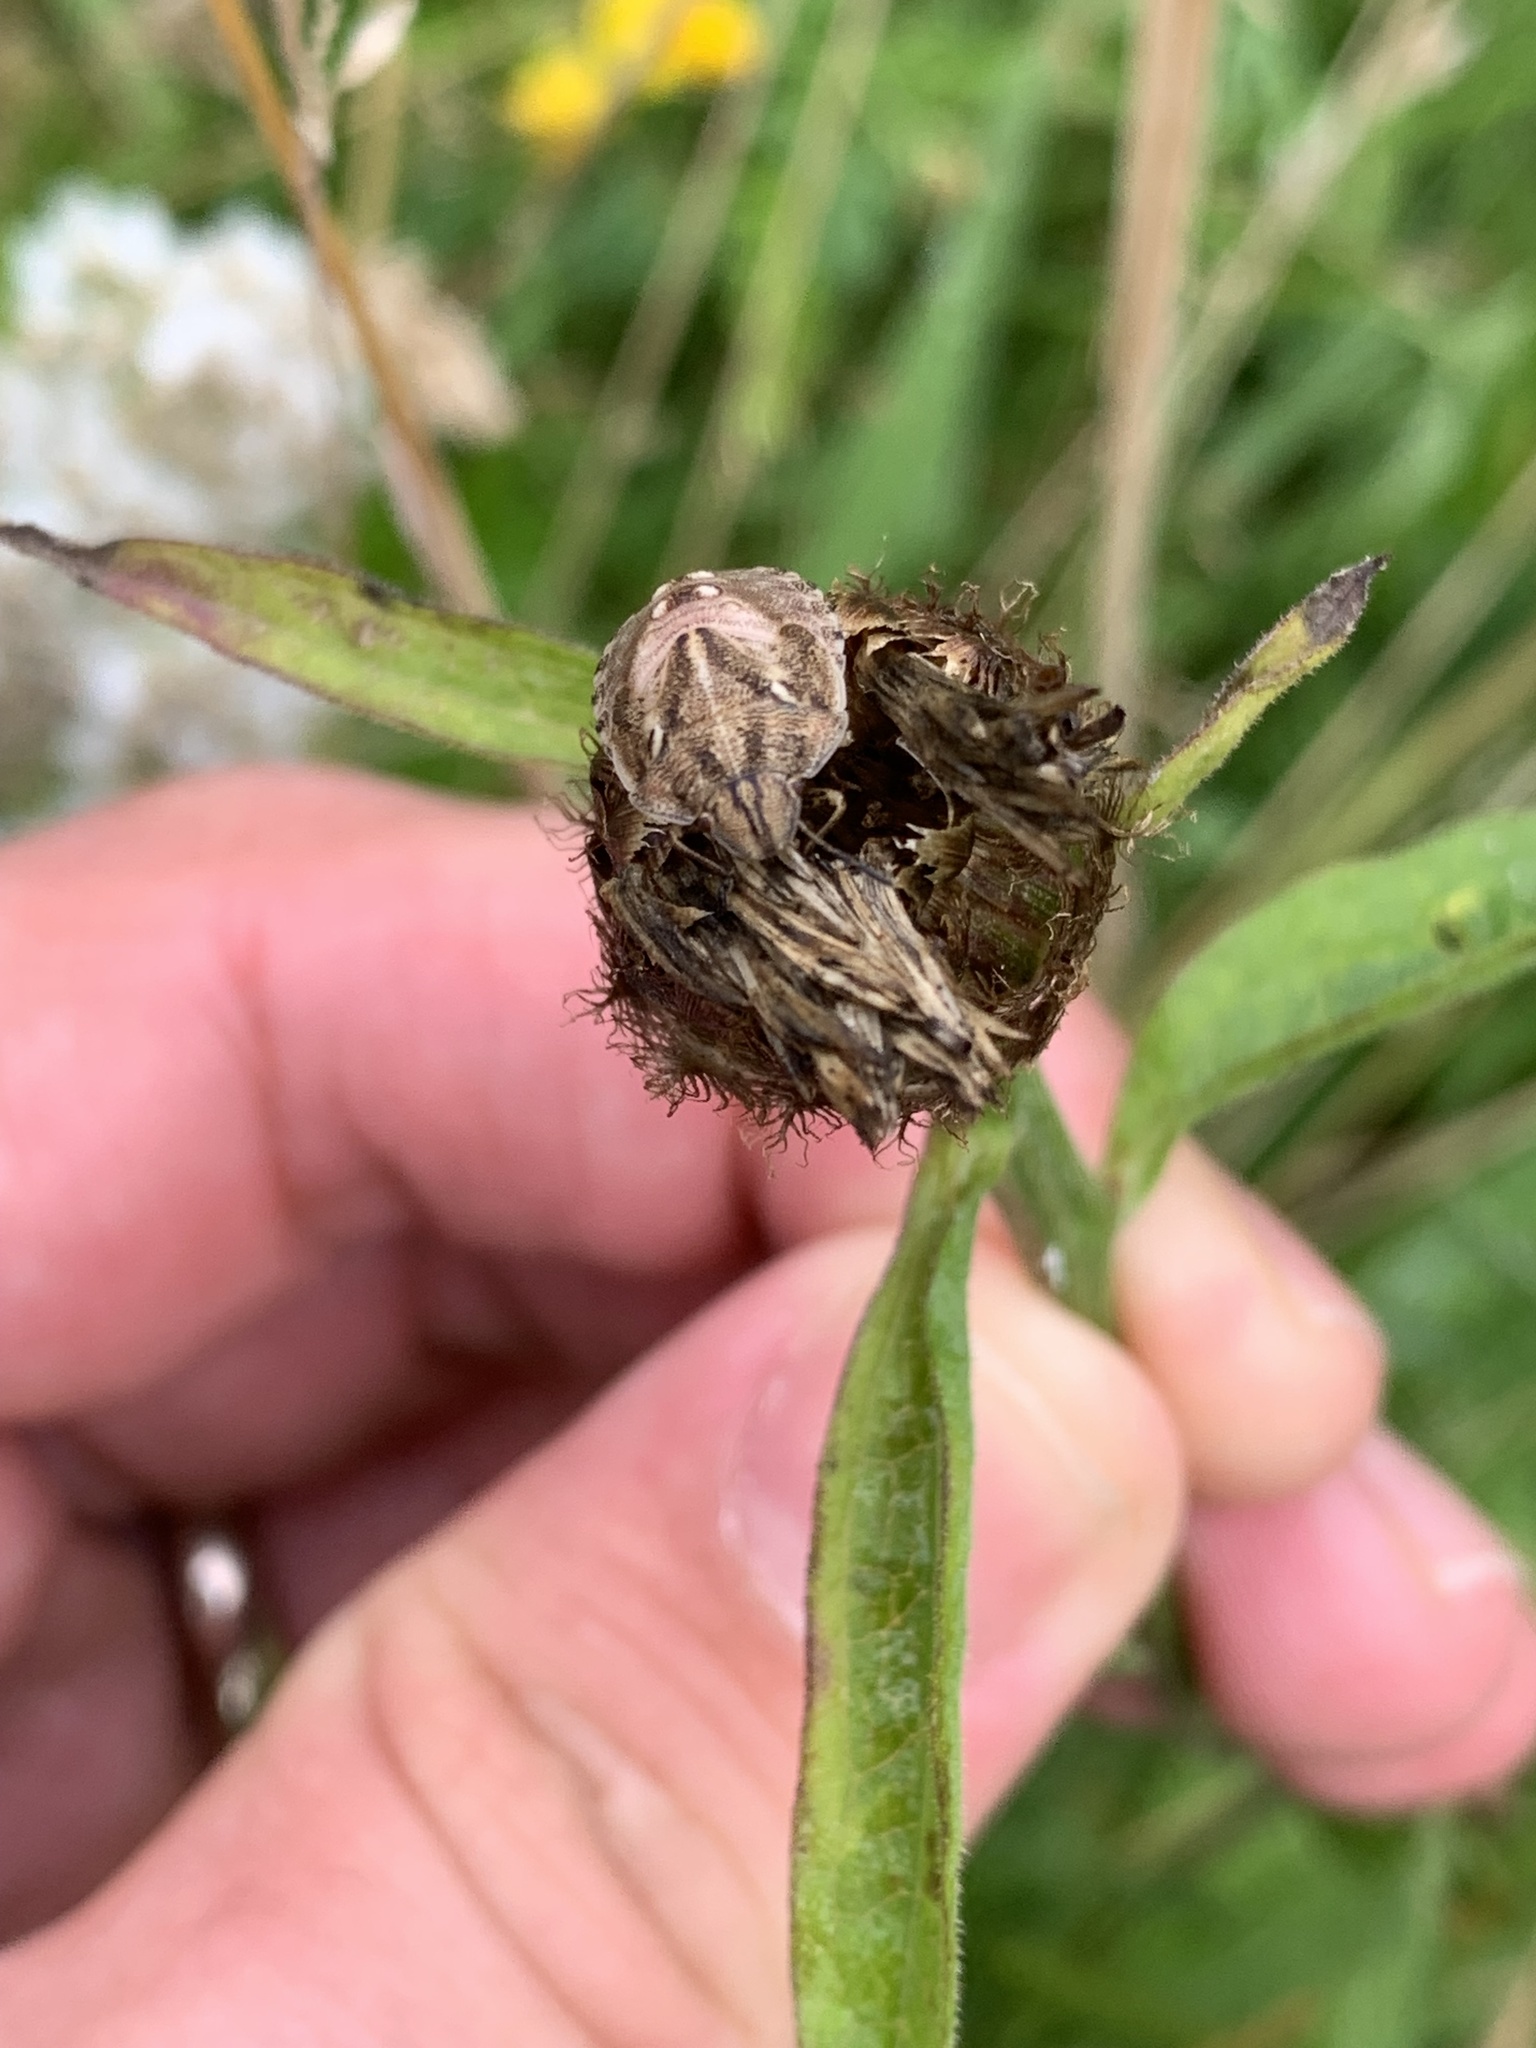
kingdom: Animalia
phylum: Arthropoda
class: Insecta
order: Hemiptera
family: Scutelleridae
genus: Eurygaster
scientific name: Eurygaster testudinaria
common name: Tortoise bug
